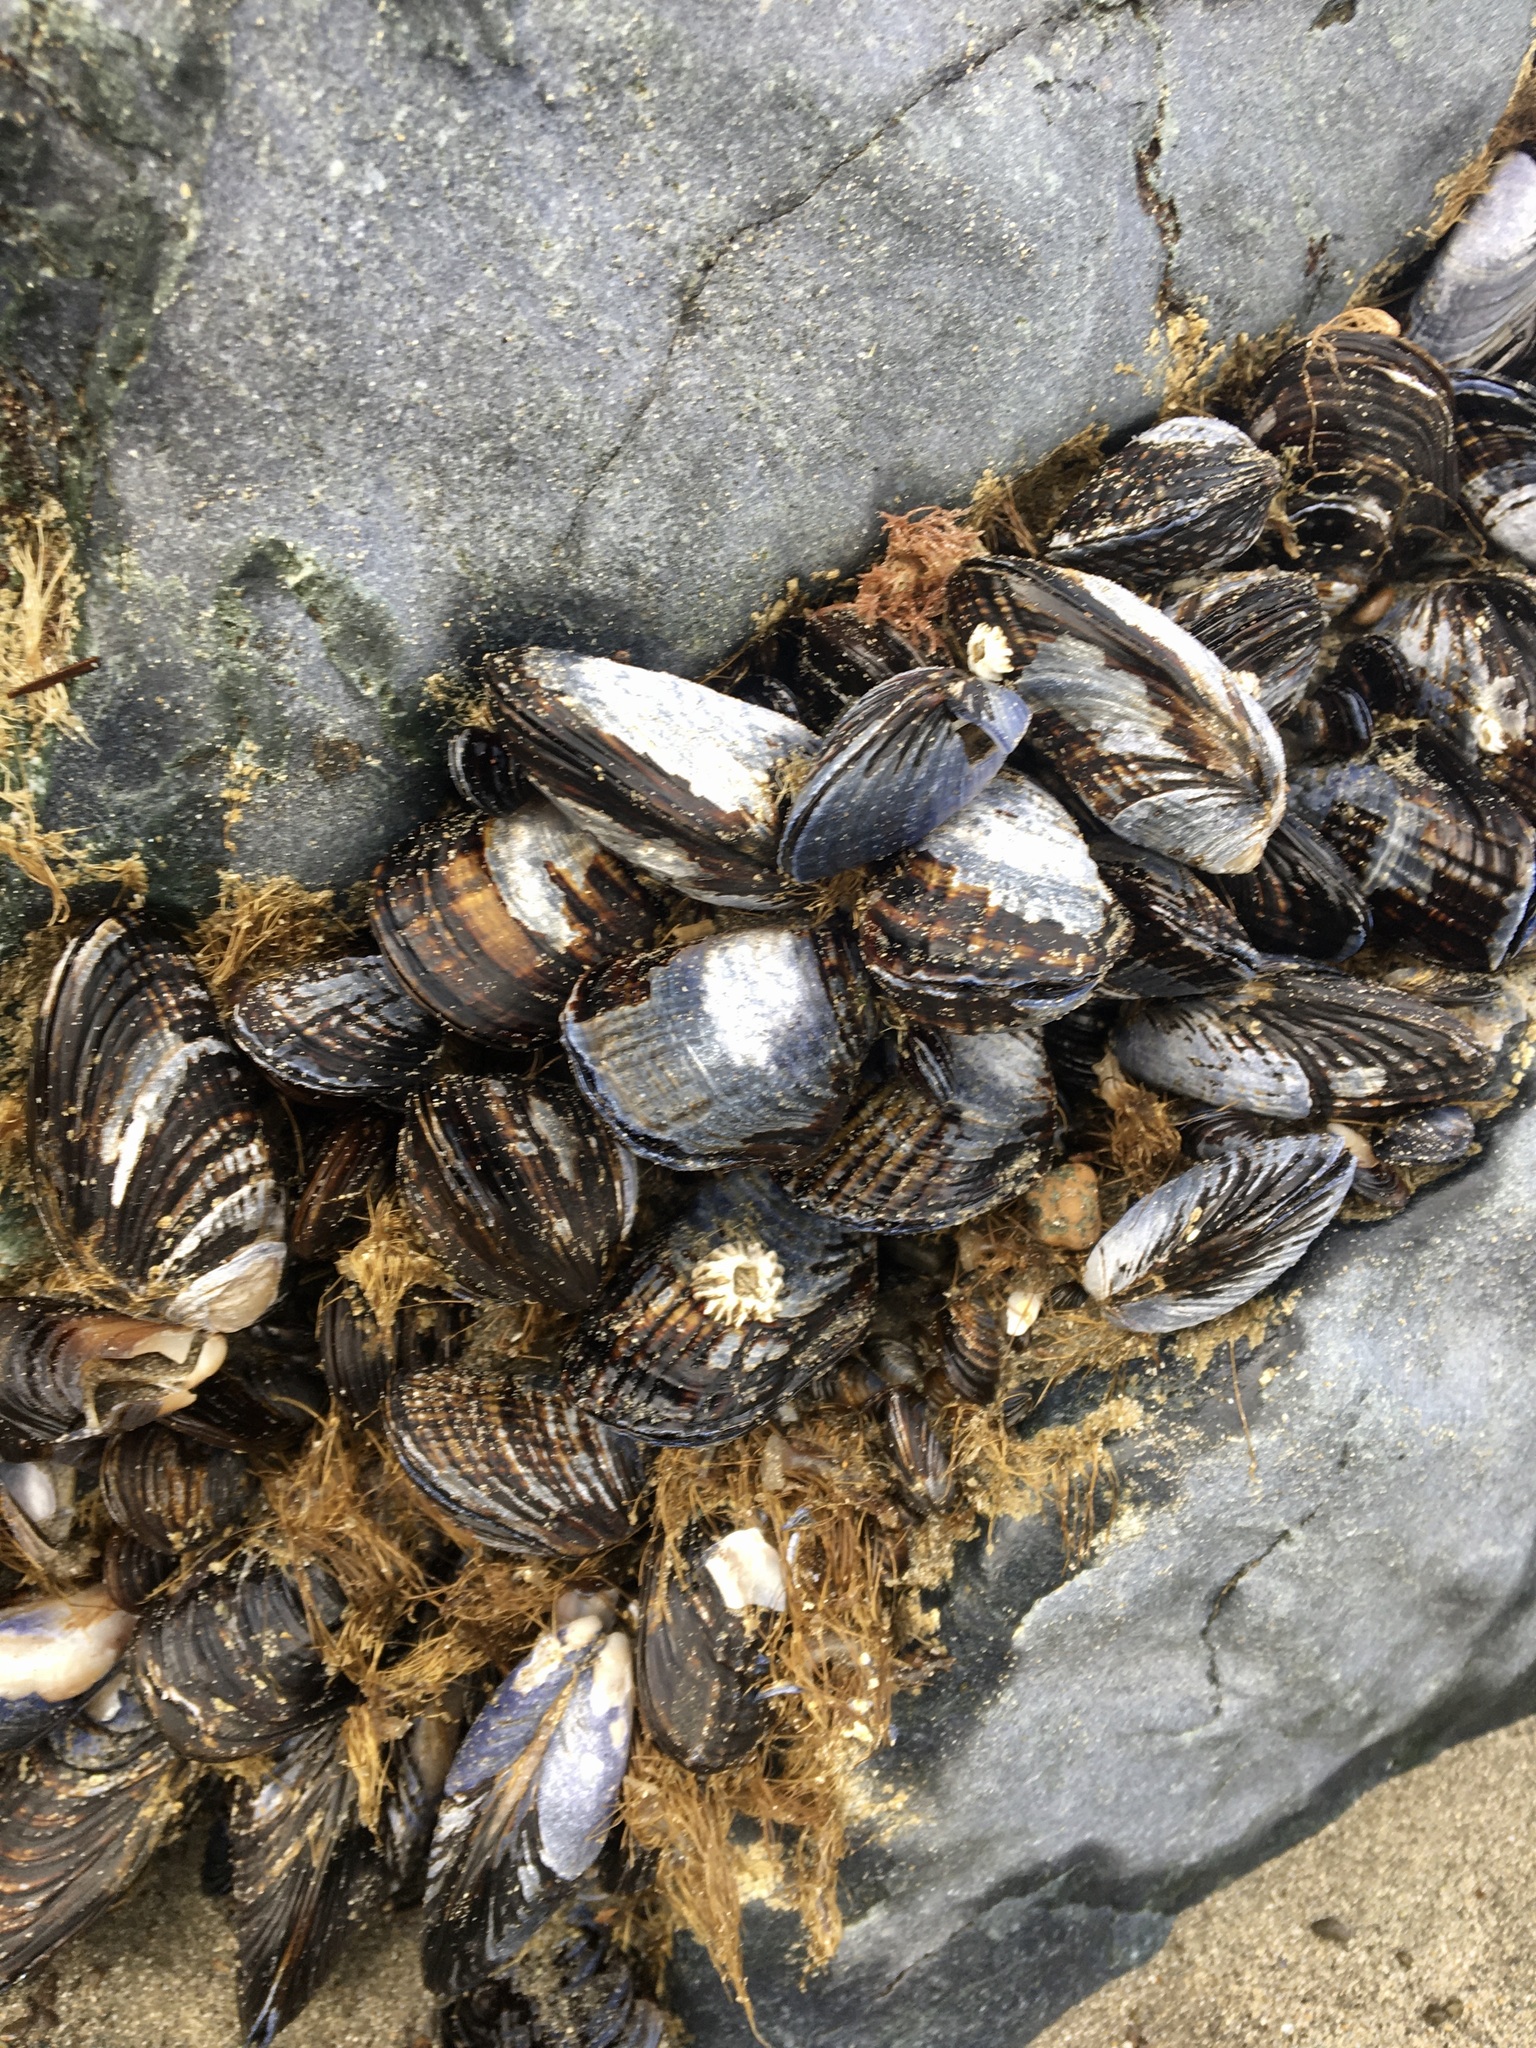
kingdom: Animalia
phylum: Mollusca
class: Bivalvia
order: Mytilida
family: Mytilidae
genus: Mytilus
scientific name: Mytilus californianus
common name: California mussel
